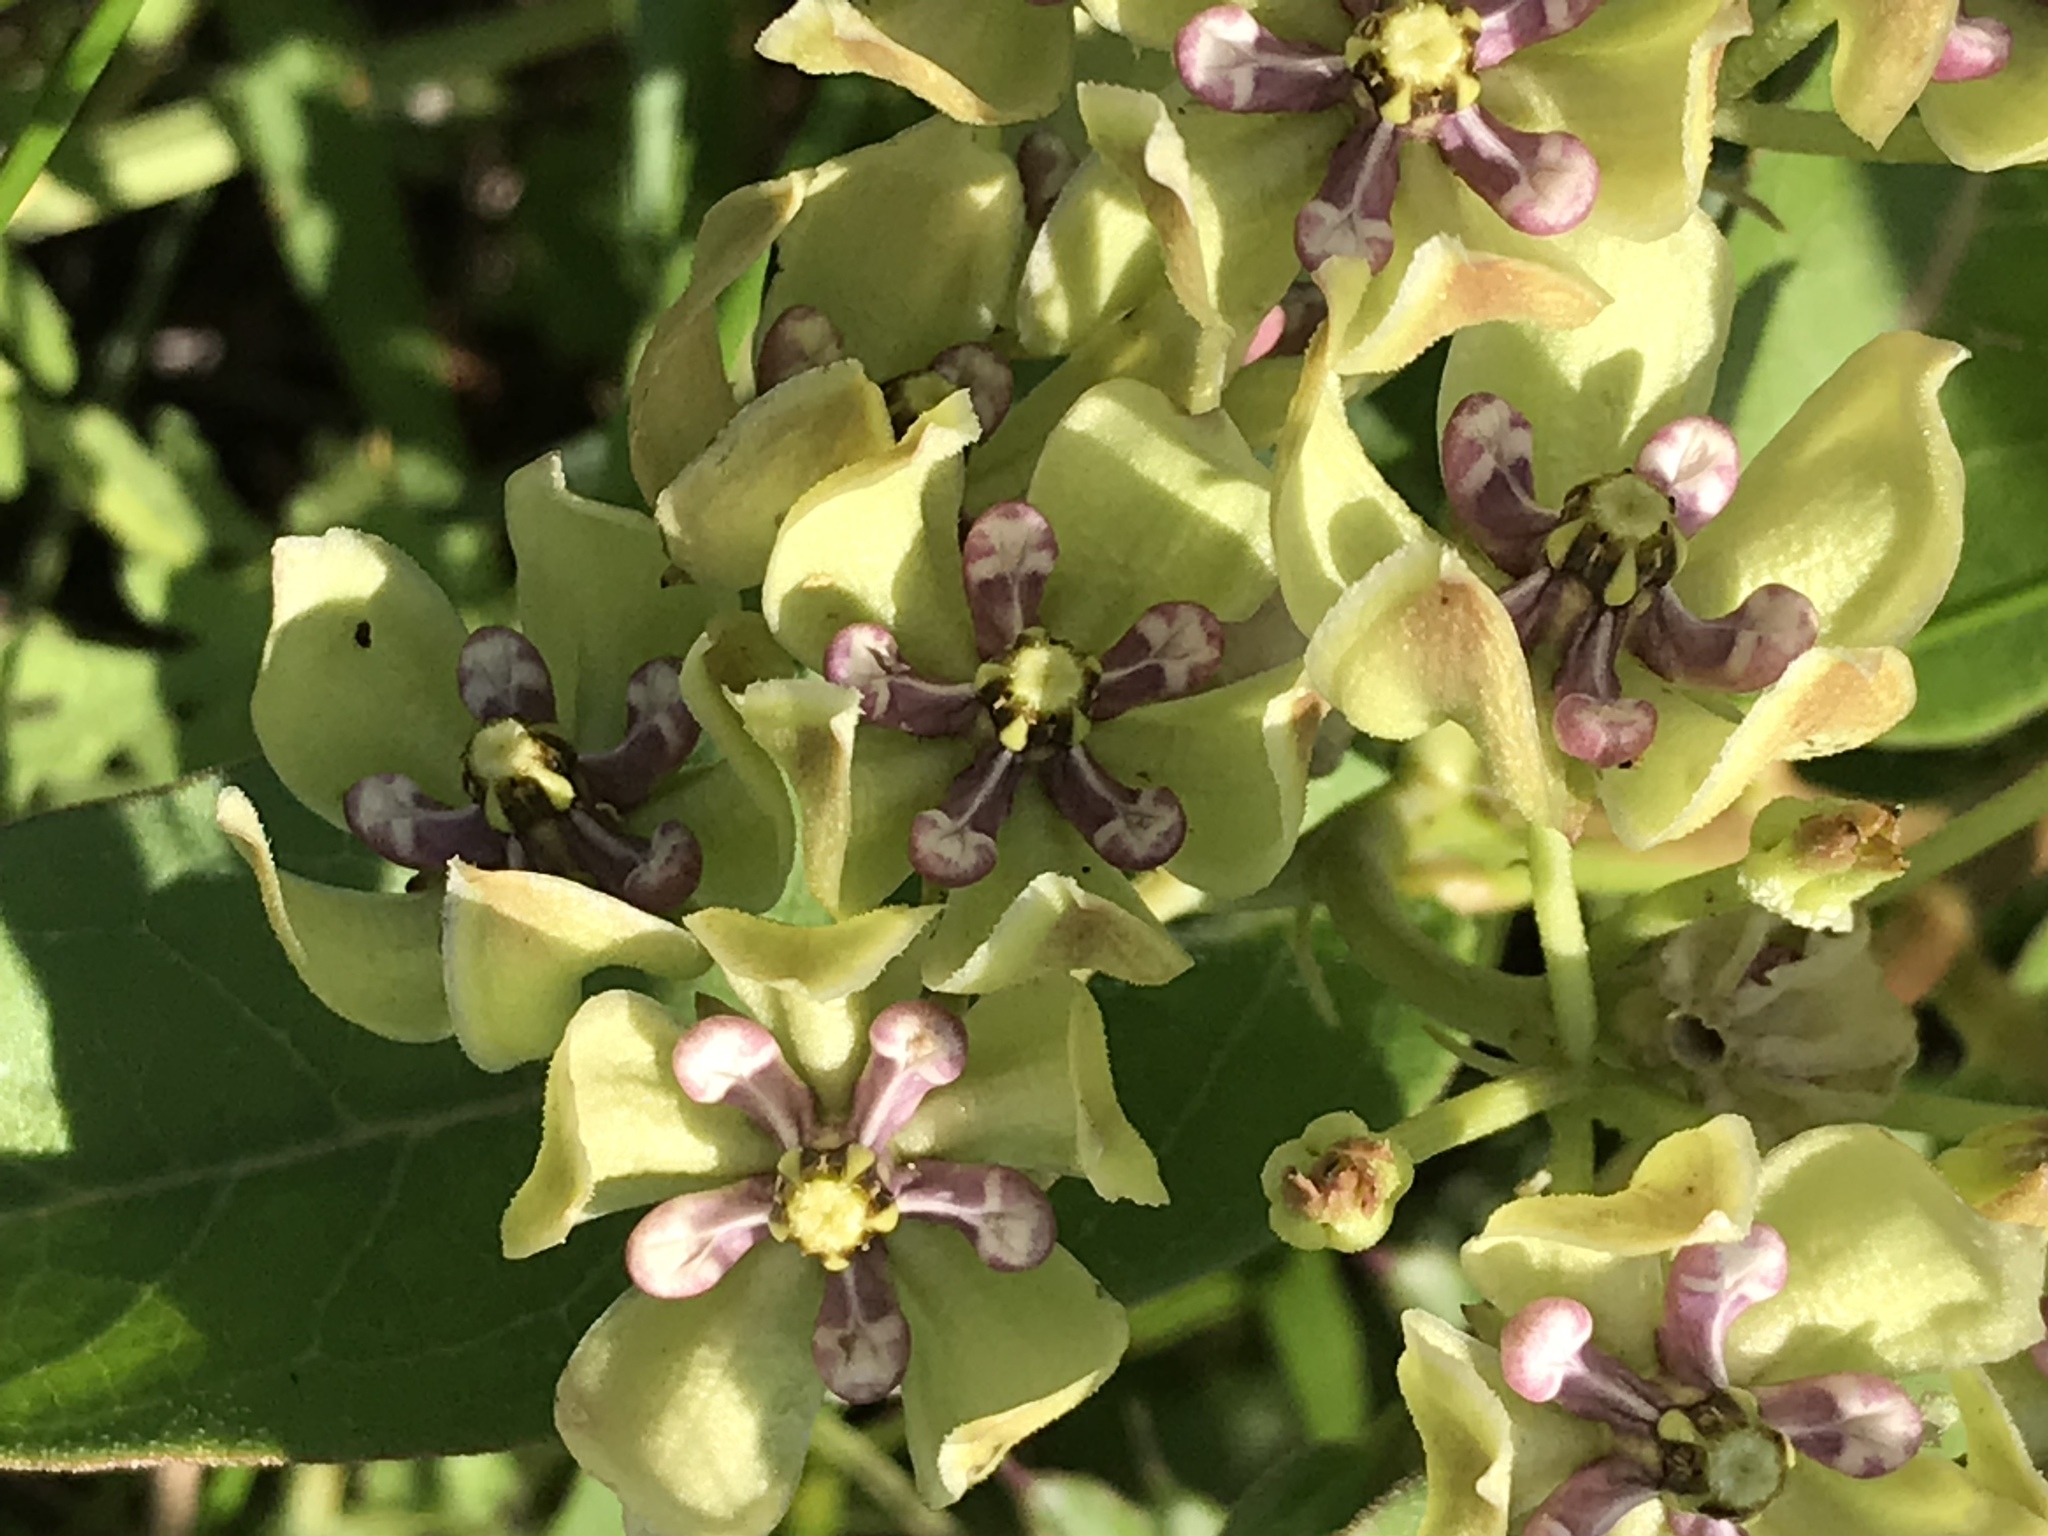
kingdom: Plantae
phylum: Tracheophyta
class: Magnoliopsida
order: Gentianales
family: Apocynaceae
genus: Asclepias
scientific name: Asclepias viridis
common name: Antelope-horns
